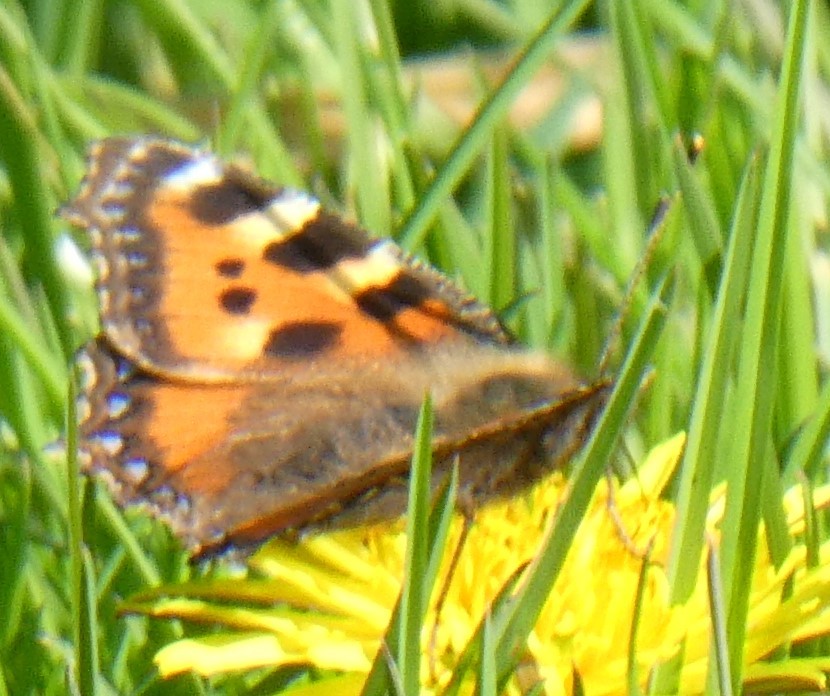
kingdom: Animalia
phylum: Arthropoda
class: Insecta
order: Lepidoptera
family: Nymphalidae
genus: Aglais
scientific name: Aglais urticae
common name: Small tortoiseshell
